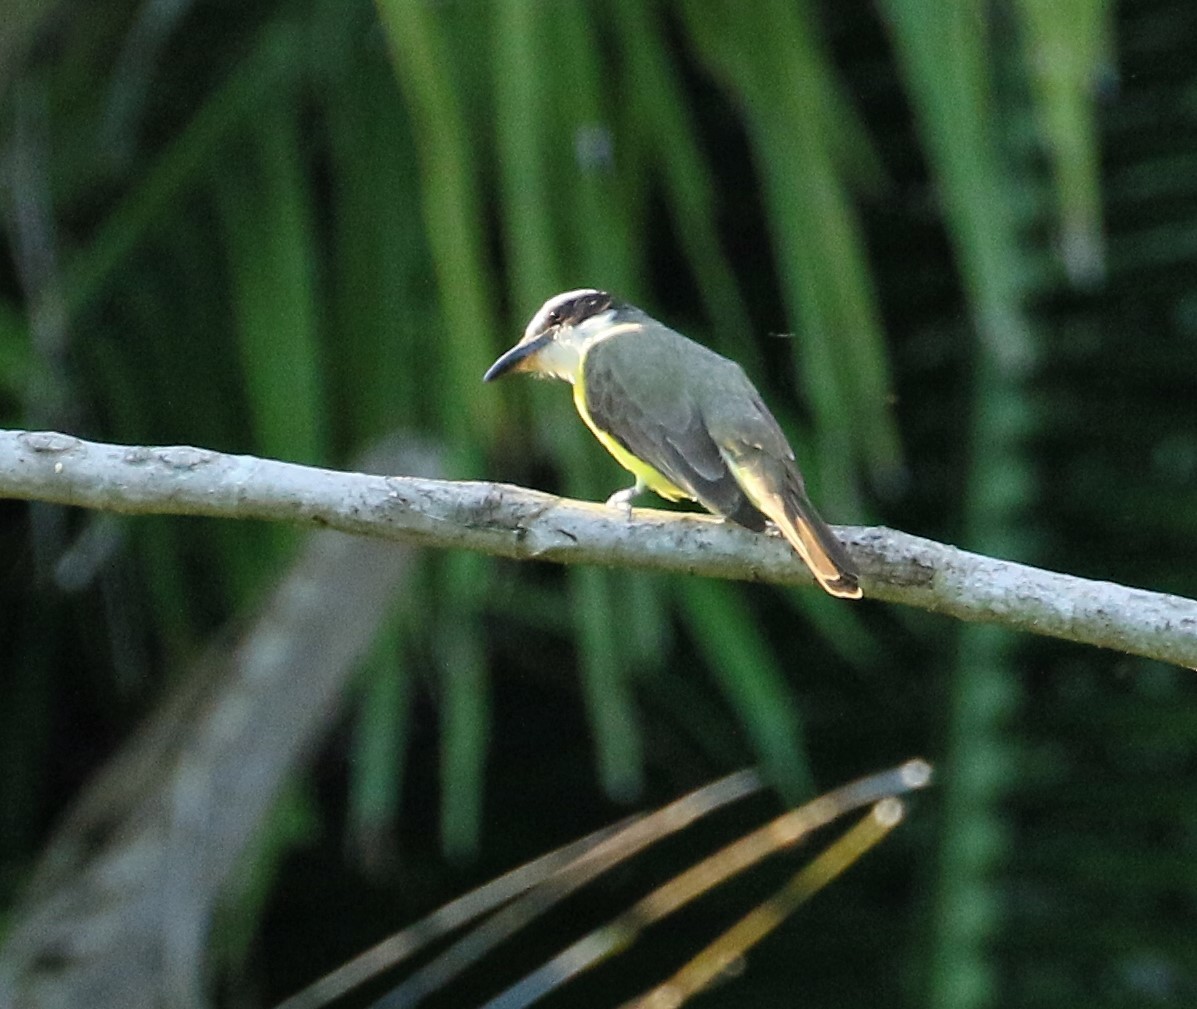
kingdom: Animalia
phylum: Chordata
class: Aves
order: Passeriformes
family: Tyrannidae
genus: Megarynchus
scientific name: Megarynchus pitangua
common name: Boat-billed flycatcher
